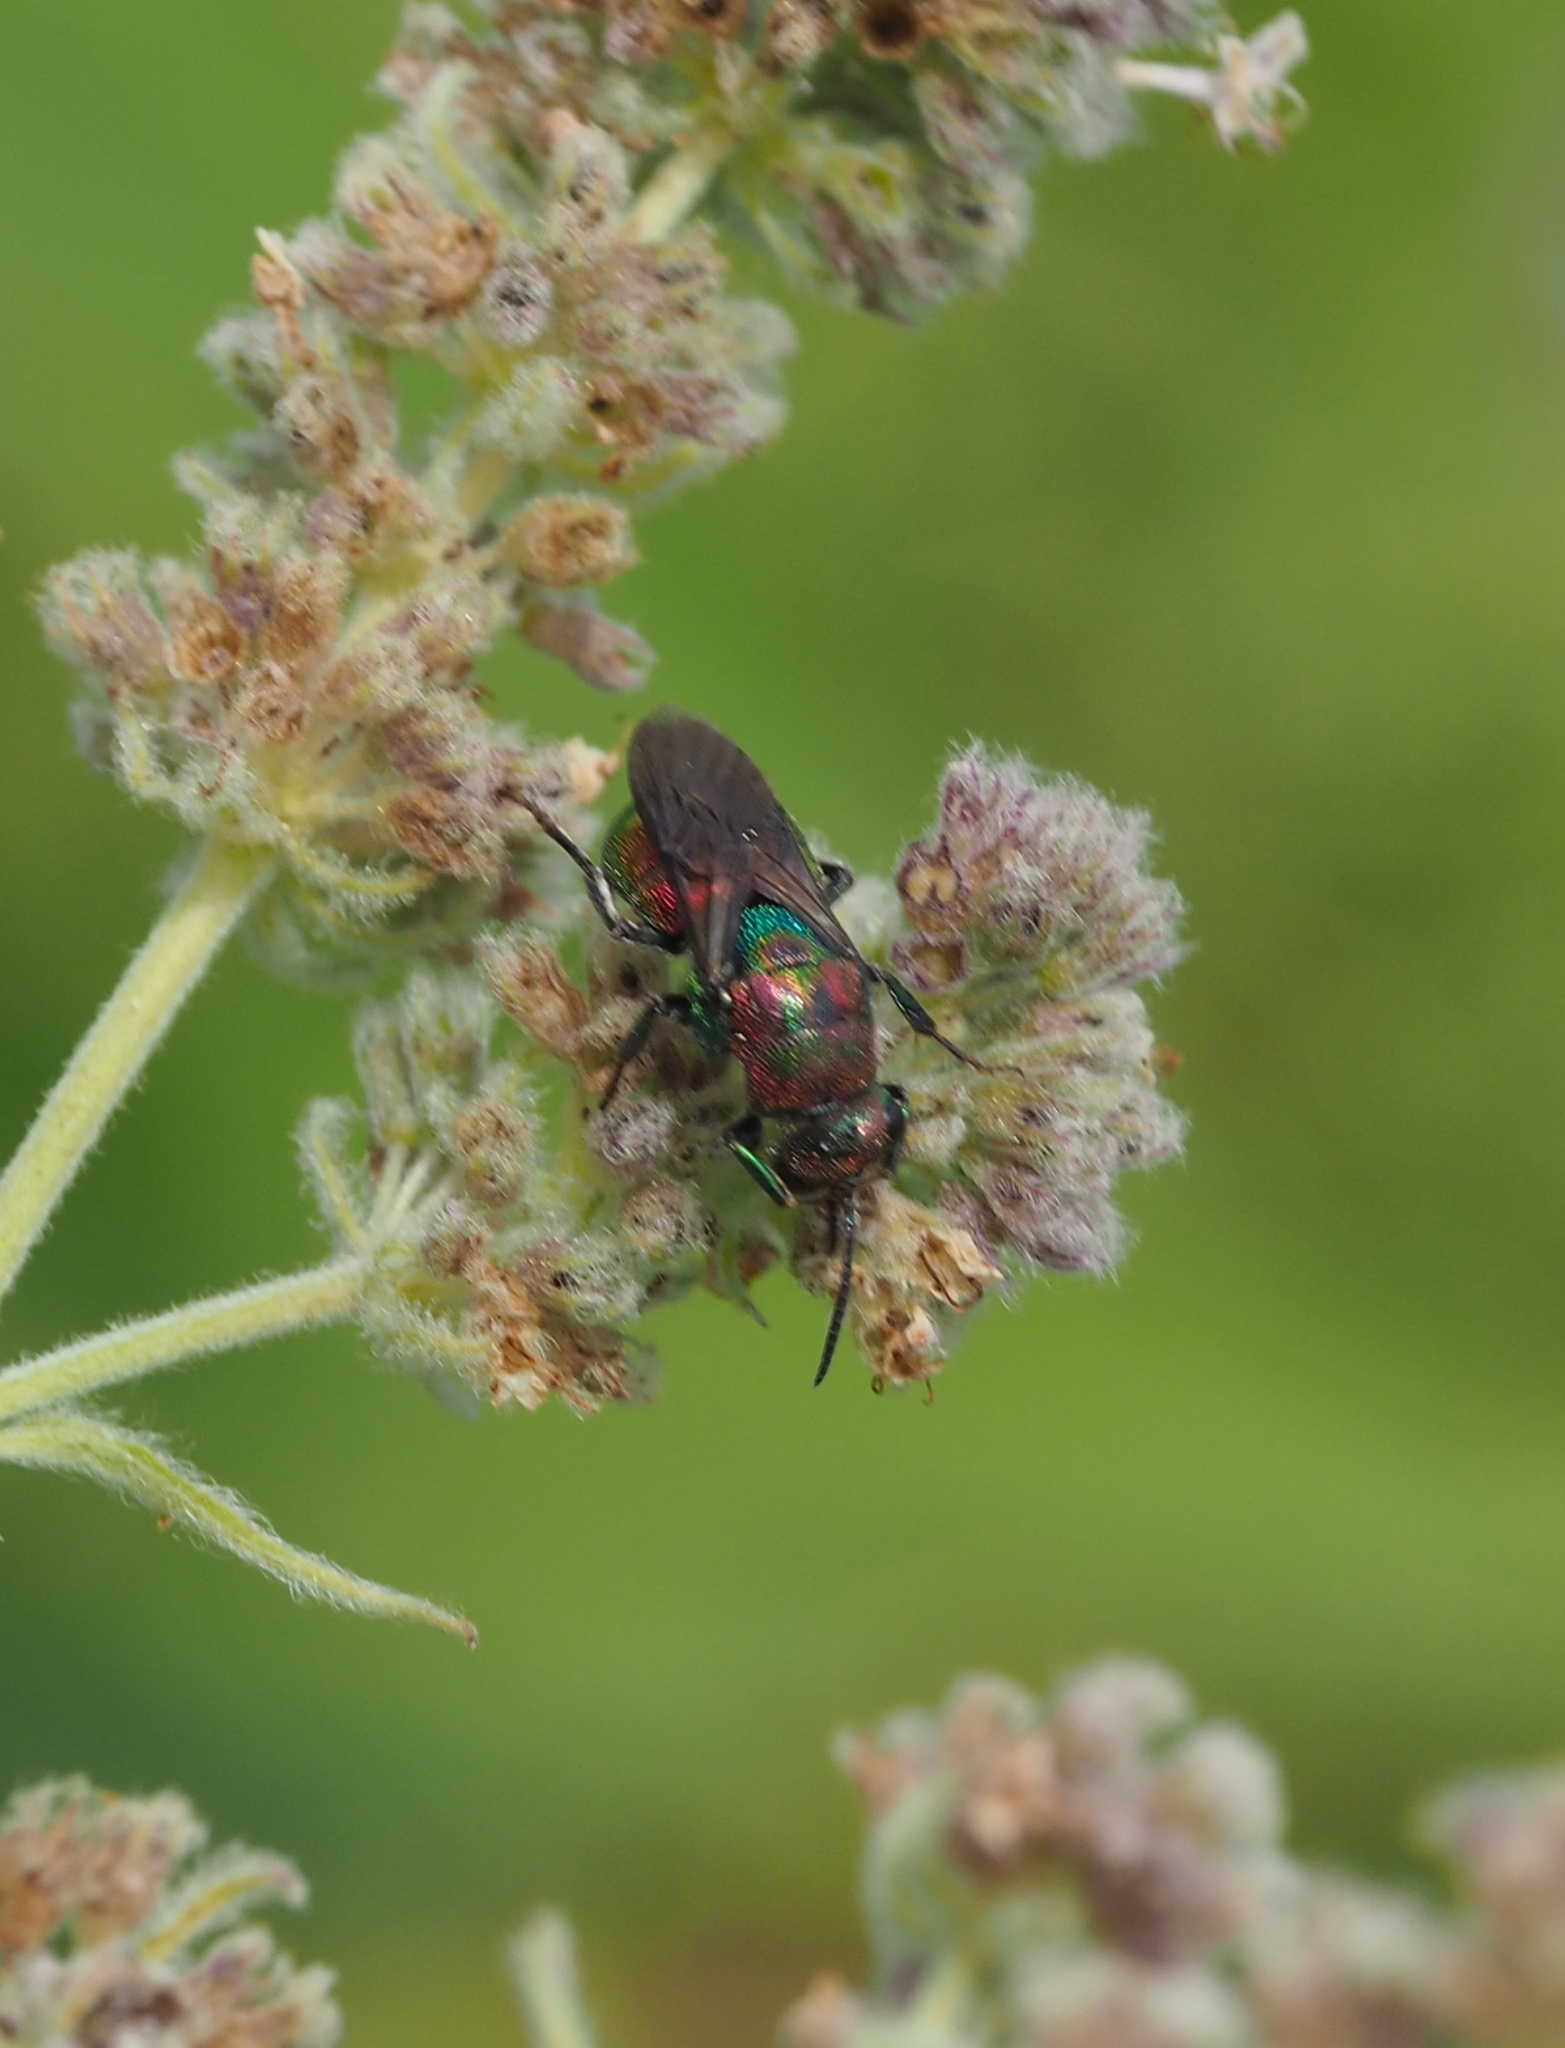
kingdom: Animalia
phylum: Arthropoda
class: Insecta
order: Hymenoptera
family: Chrysididae
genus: Hedychrum
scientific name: Hedychrum rutilans
